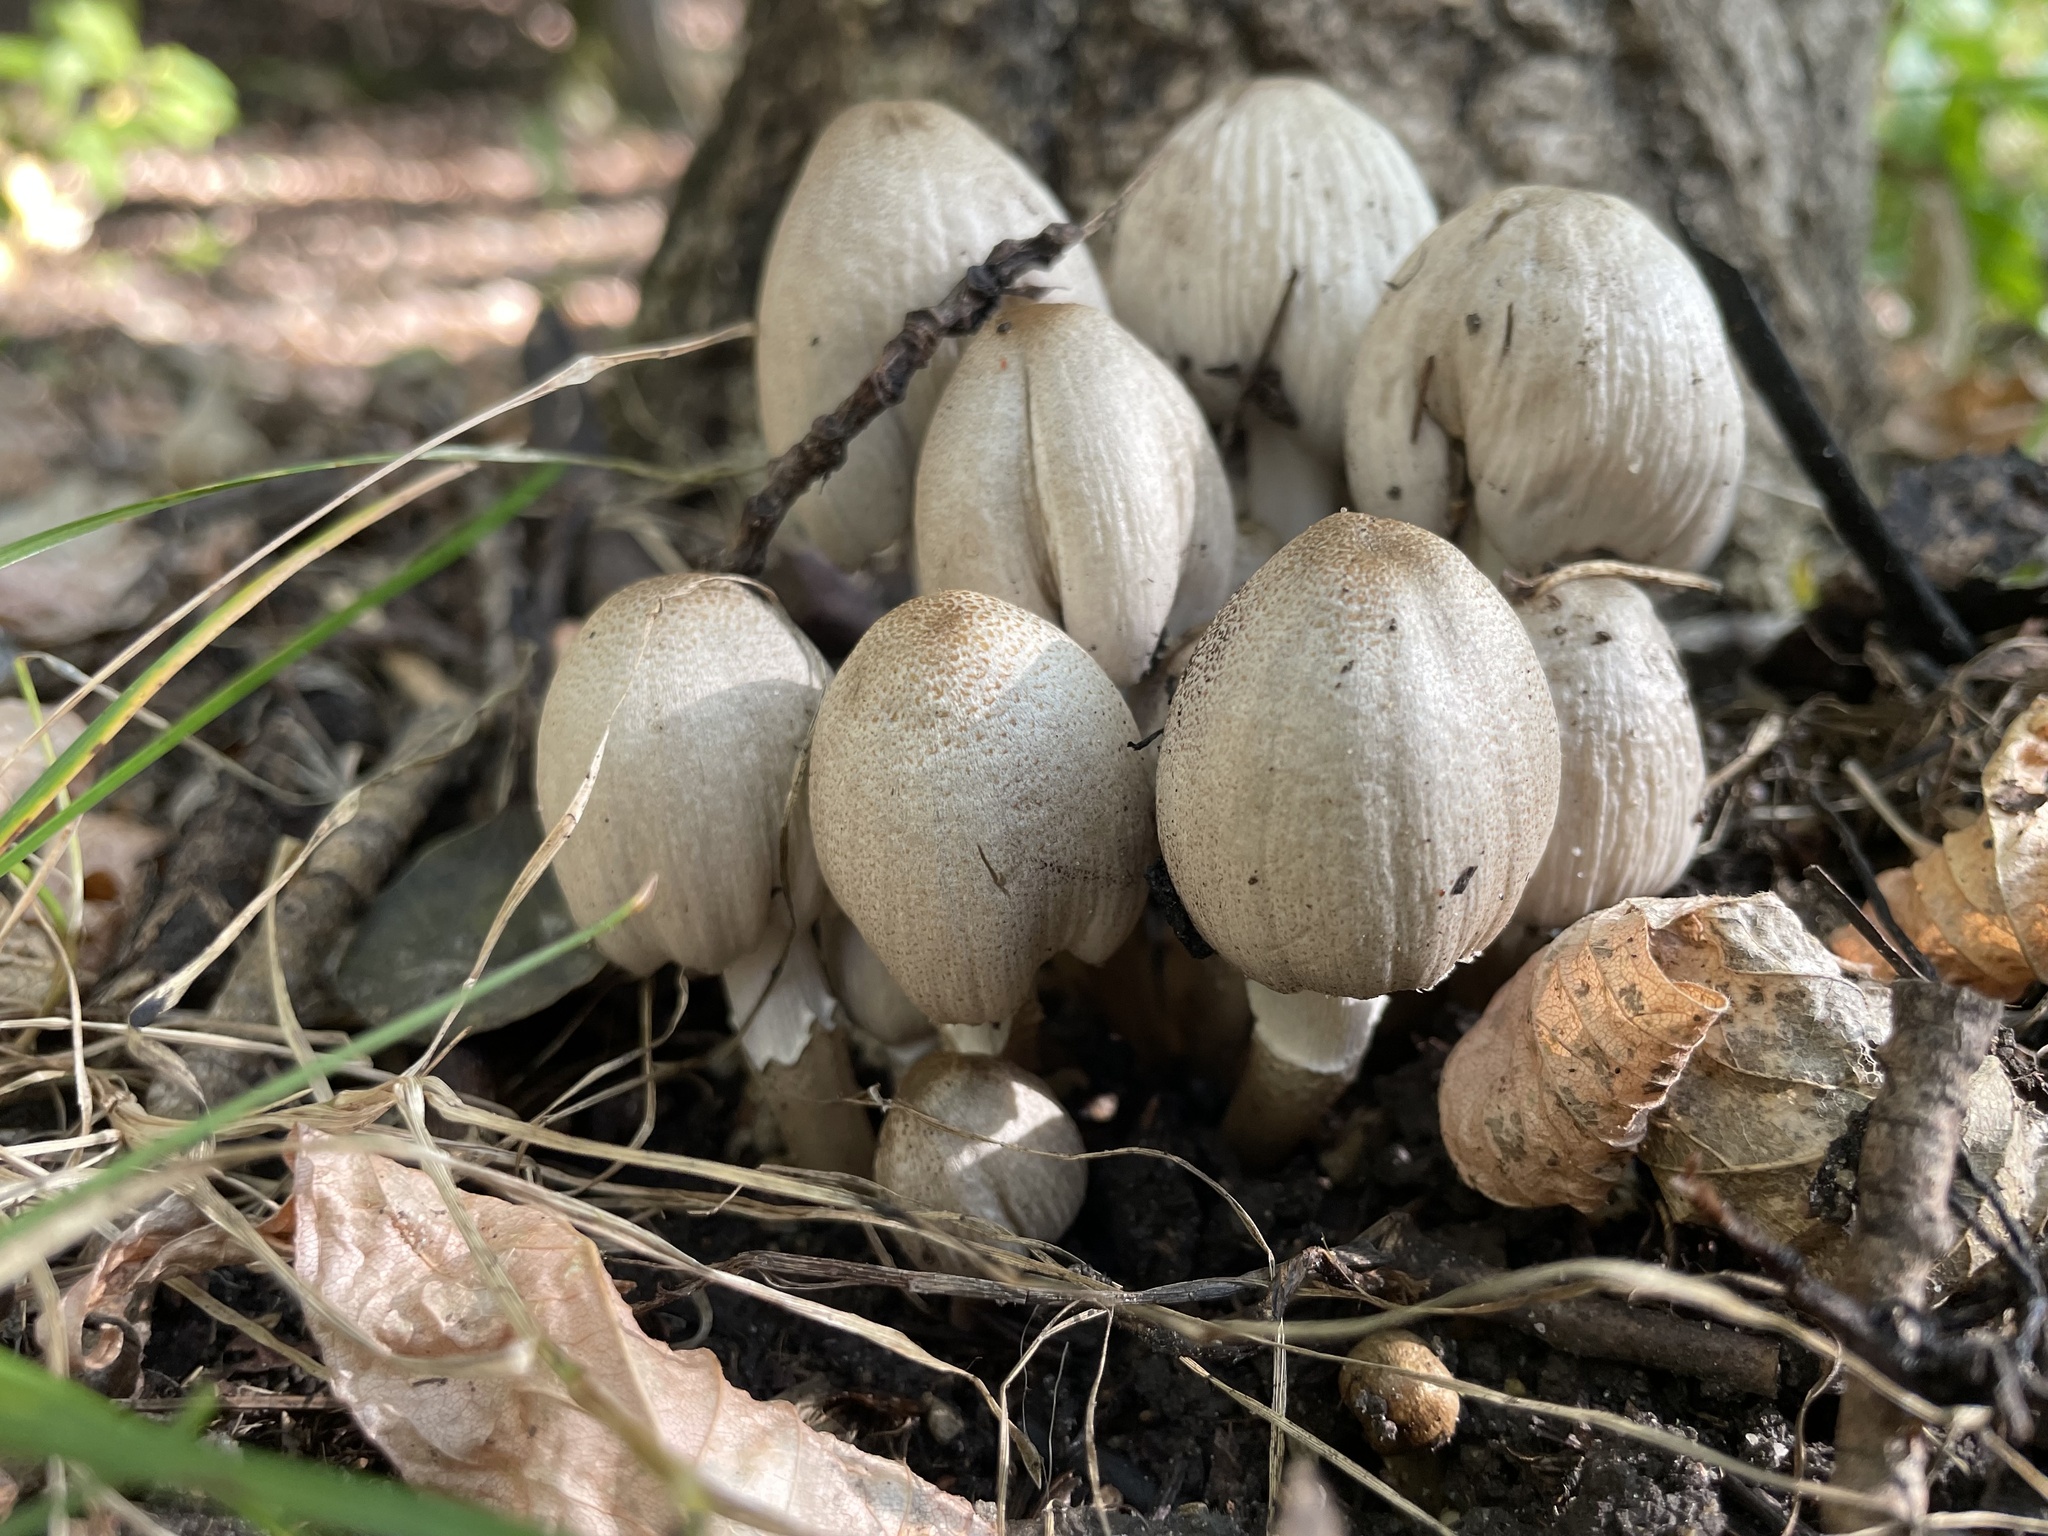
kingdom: Fungi
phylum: Basidiomycota
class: Agaricomycetes
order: Agaricales
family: Psathyrellaceae
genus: Coprinopsis
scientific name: Coprinopsis atramentaria
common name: Common ink-cap
